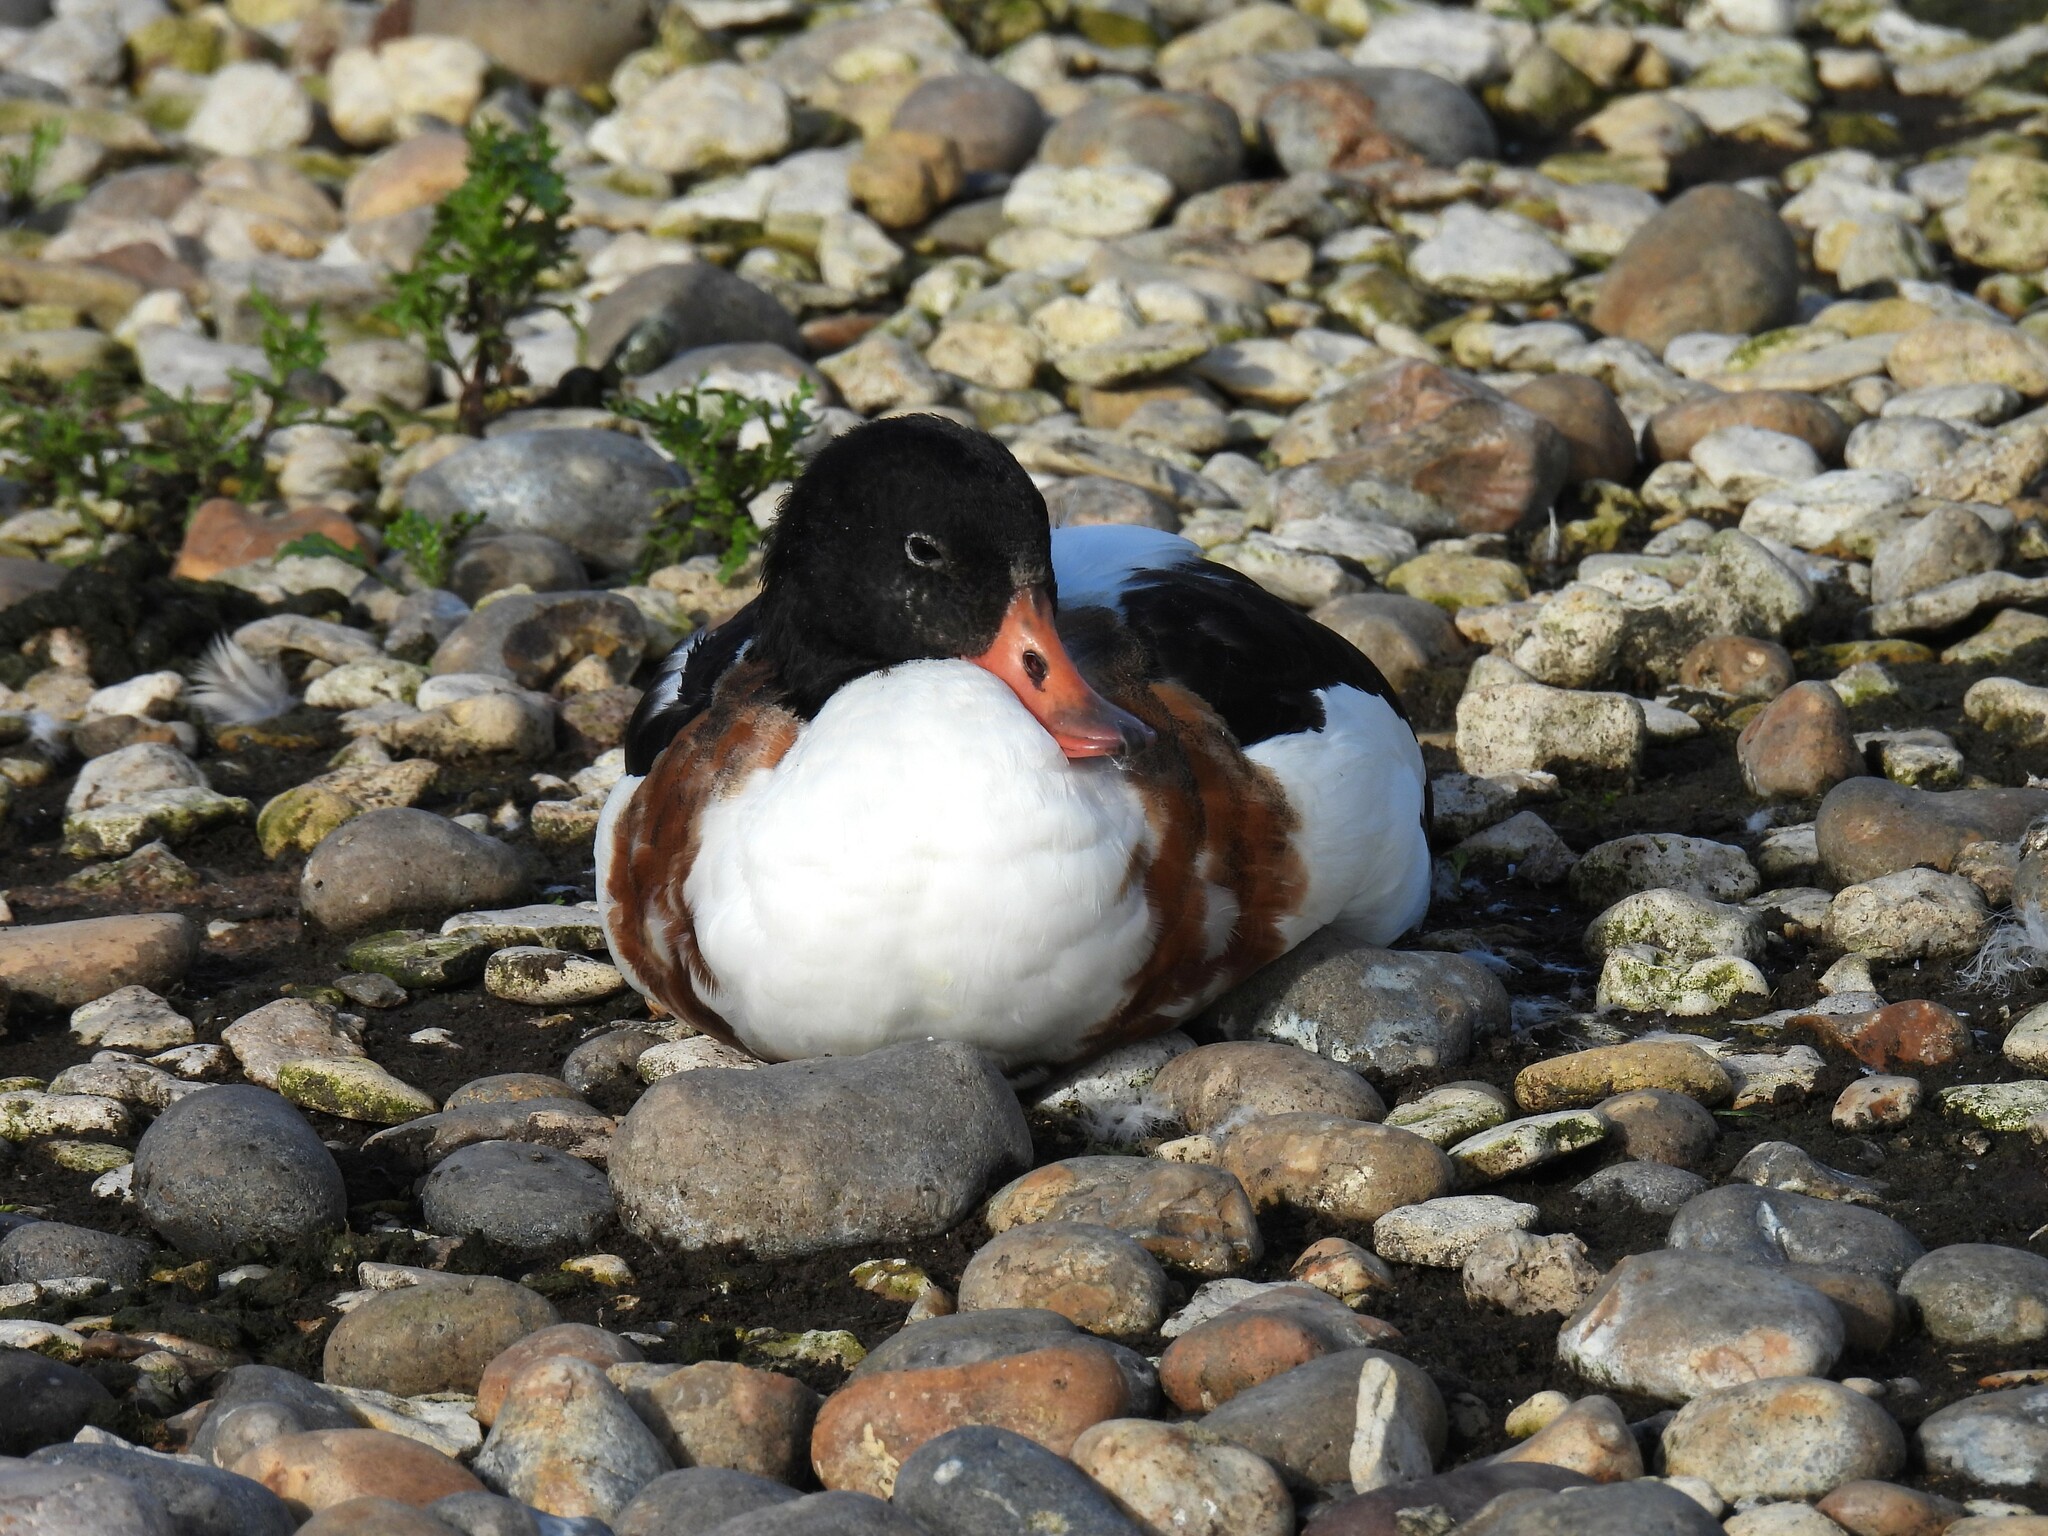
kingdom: Animalia
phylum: Chordata
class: Aves
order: Anseriformes
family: Anatidae
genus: Tadorna
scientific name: Tadorna tadorna
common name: Common shelduck
